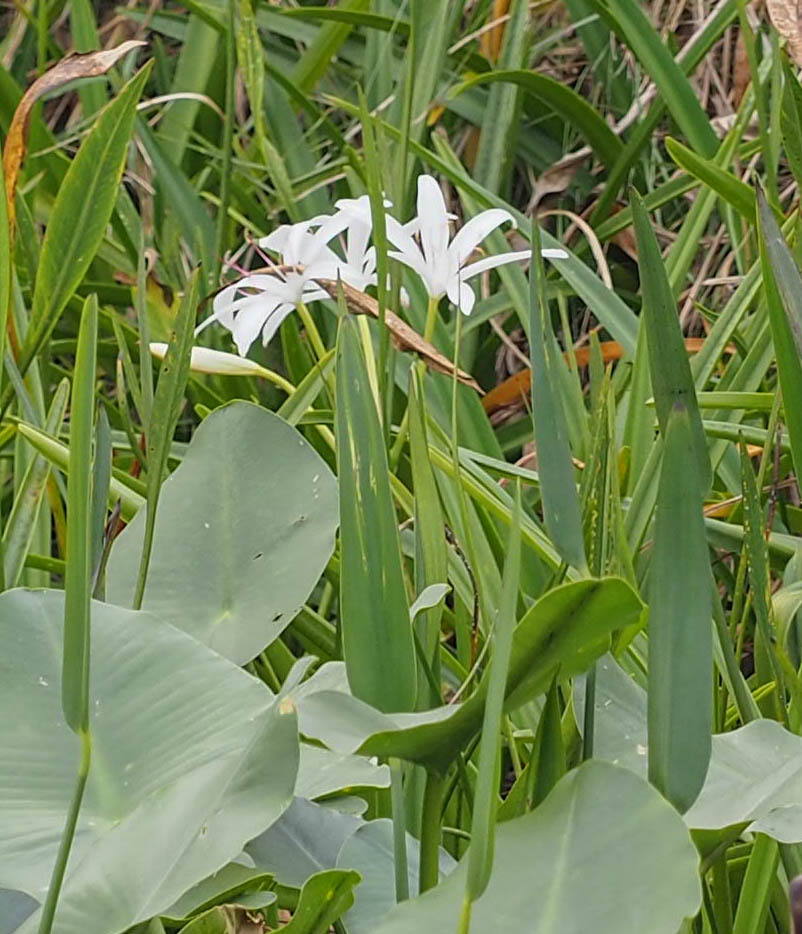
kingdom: Plantae
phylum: Tracheophyta
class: Liliopsida
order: Asparagales
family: Amaryllidaceae
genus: Crinum
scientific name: Crinum americanum
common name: Florida swamp-lily
